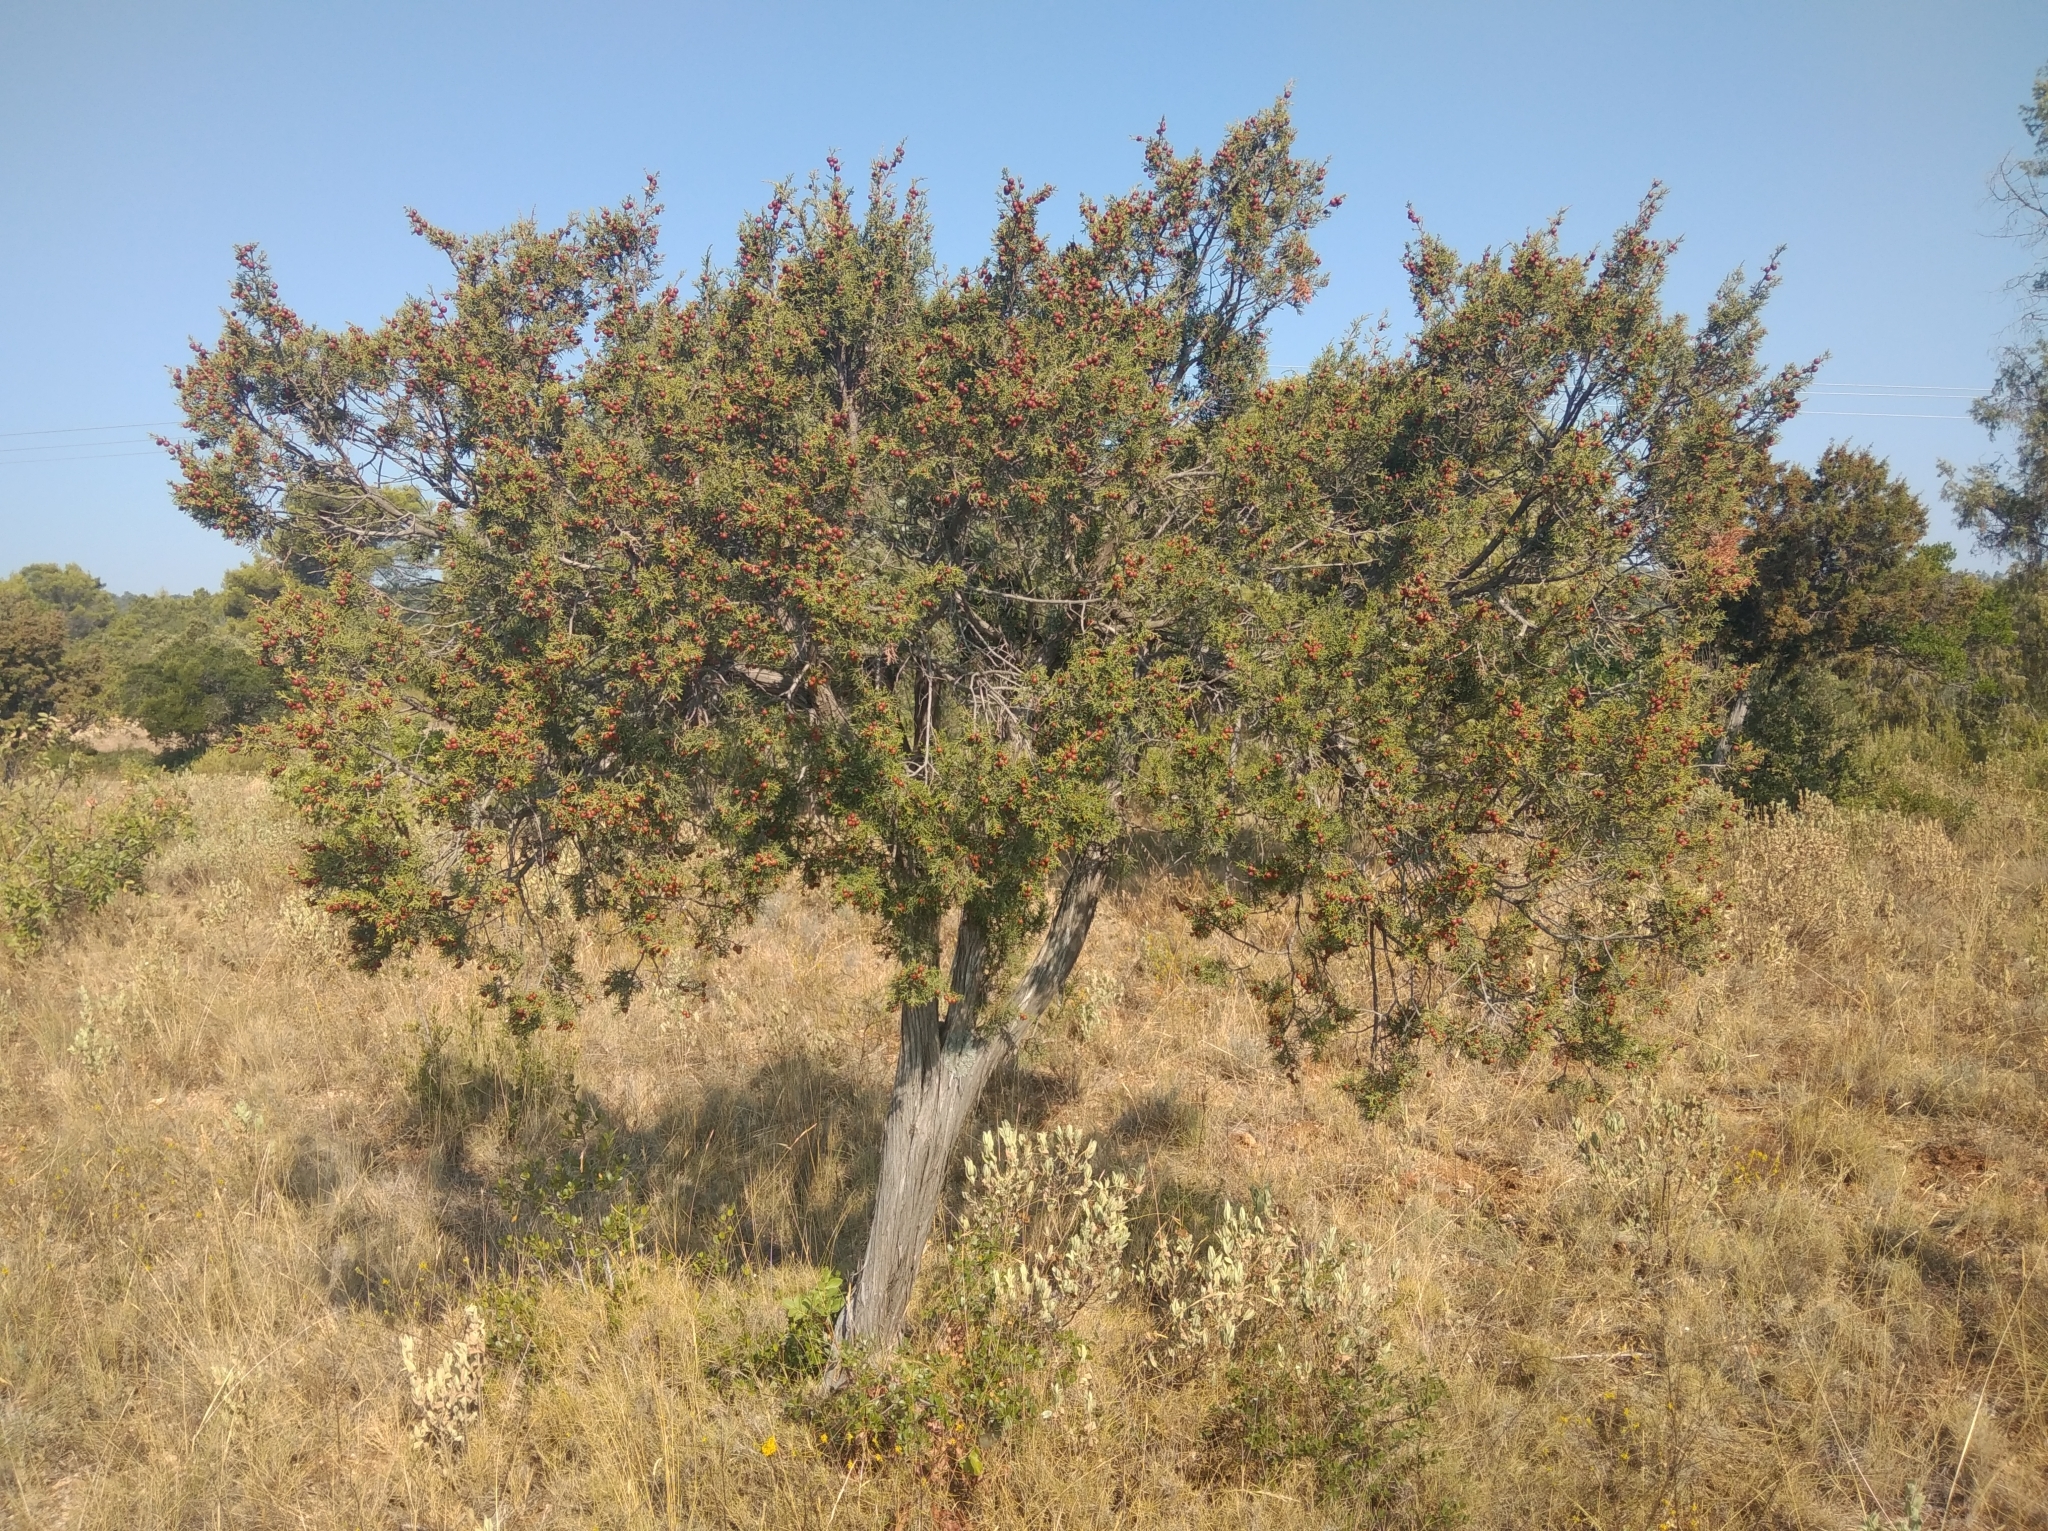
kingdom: Plantae
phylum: Tracheophyta
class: Pinopsida
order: Pinales
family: Cupressaceae
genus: Juniperus
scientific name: Juniperus phoenicea
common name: Phoenician juniper
